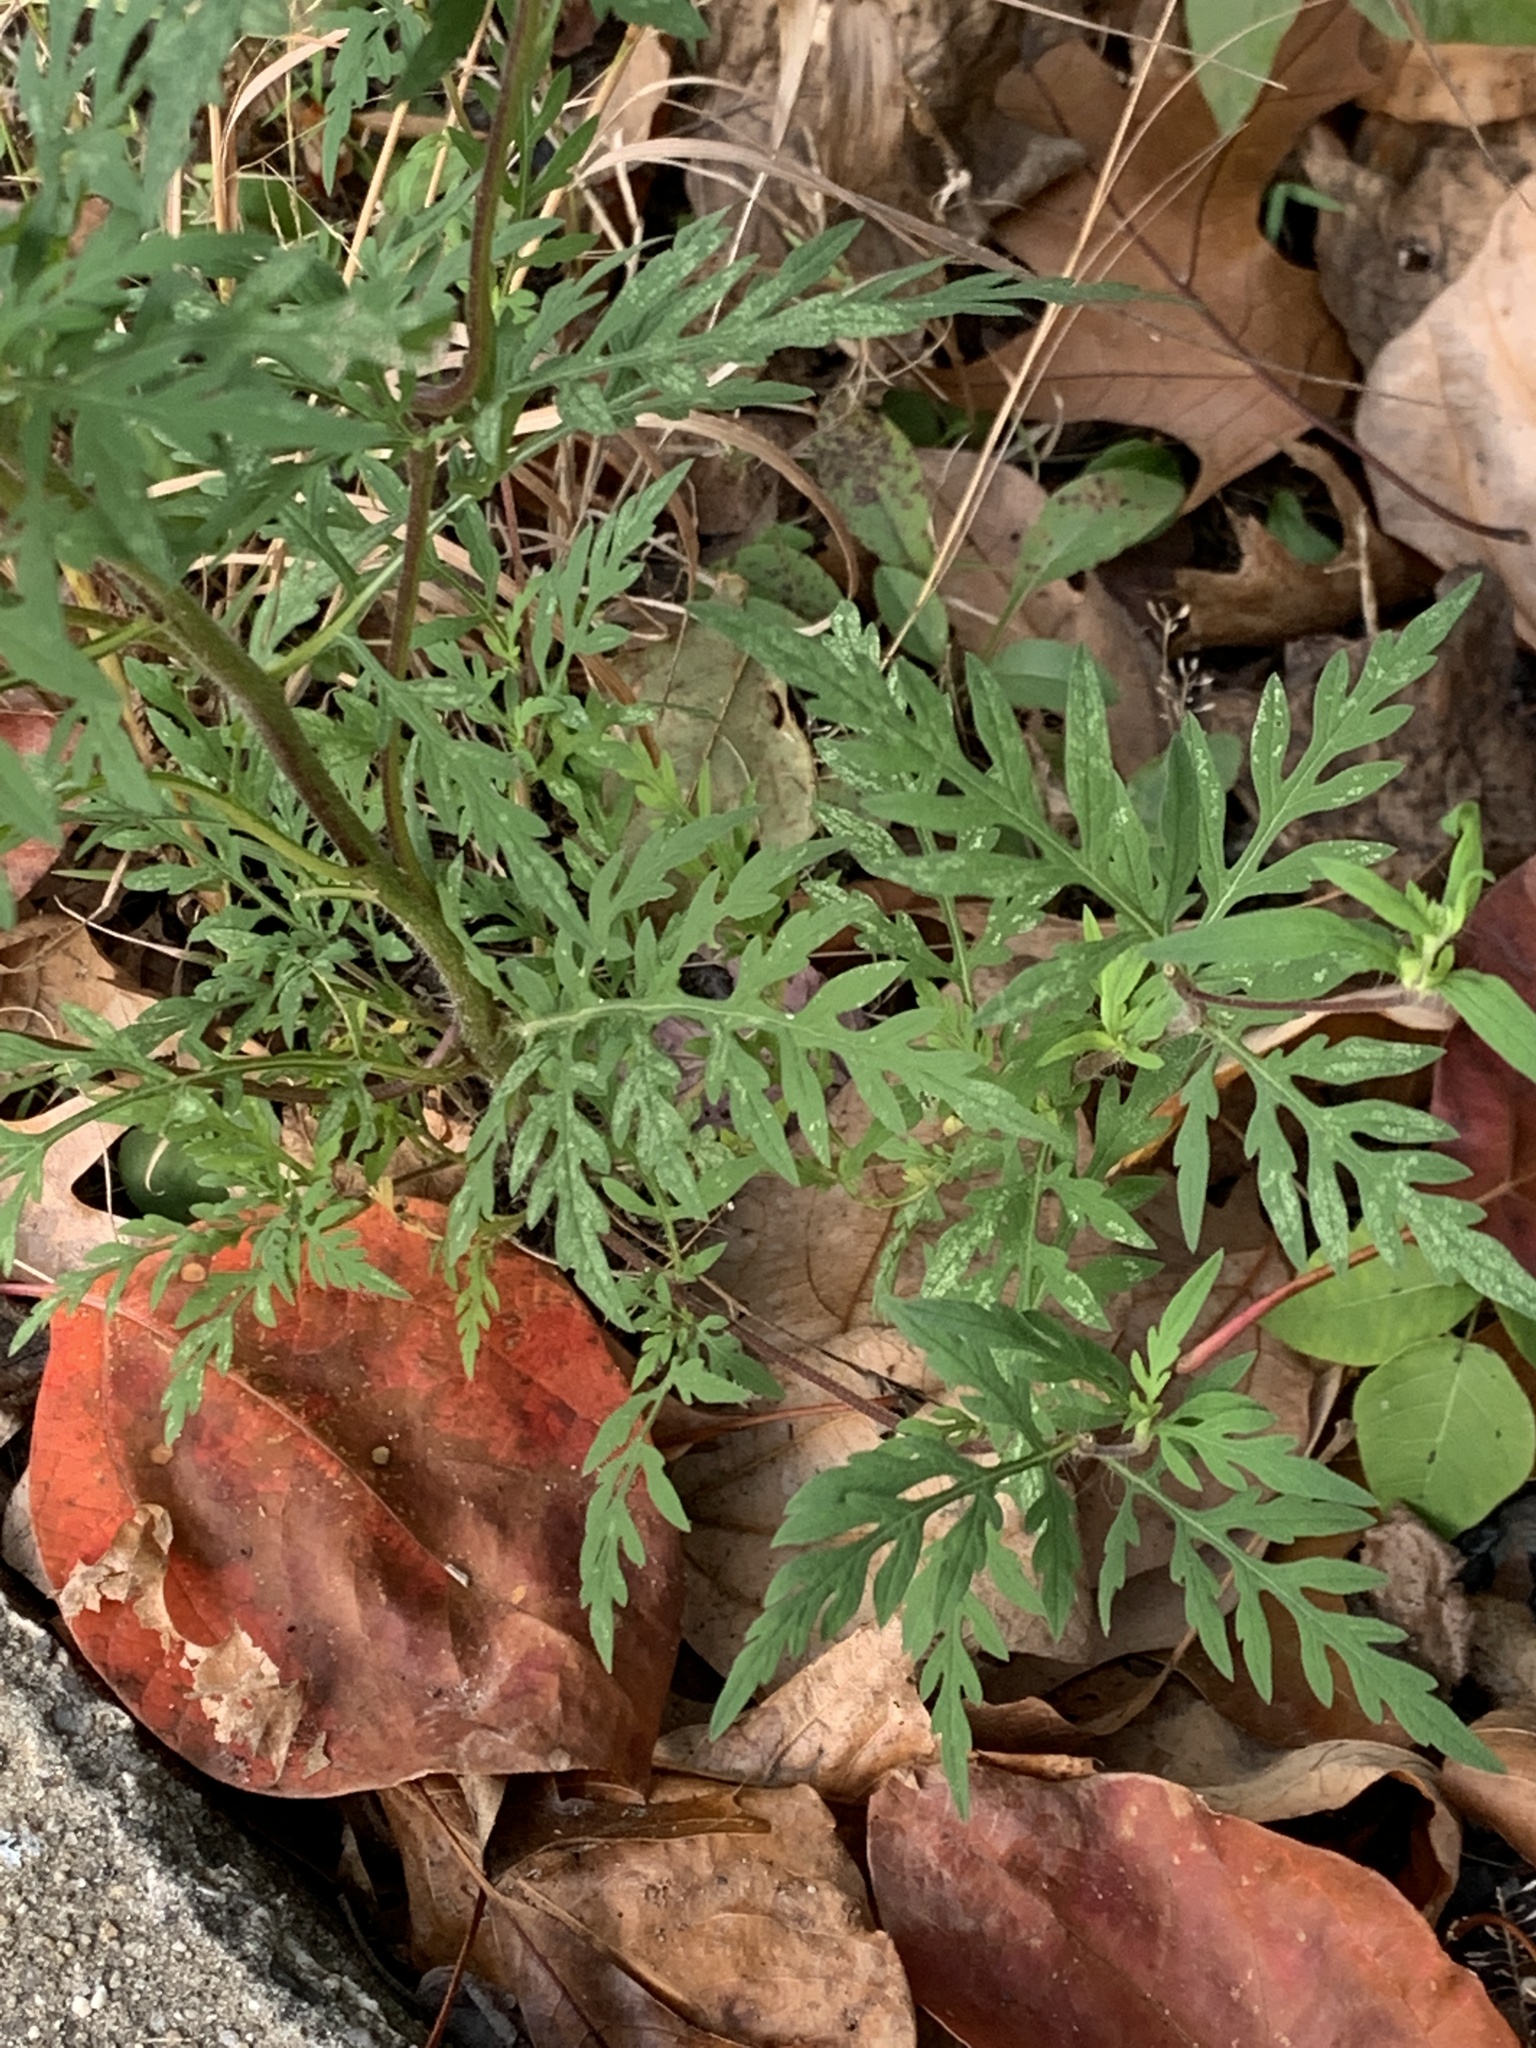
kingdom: Plantae
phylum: Tracheophyta
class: Magnoliopsida
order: Asterales
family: Asteraceae
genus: Ambrosia
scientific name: Ambrosia artemisiifolia
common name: Annual ragweed
